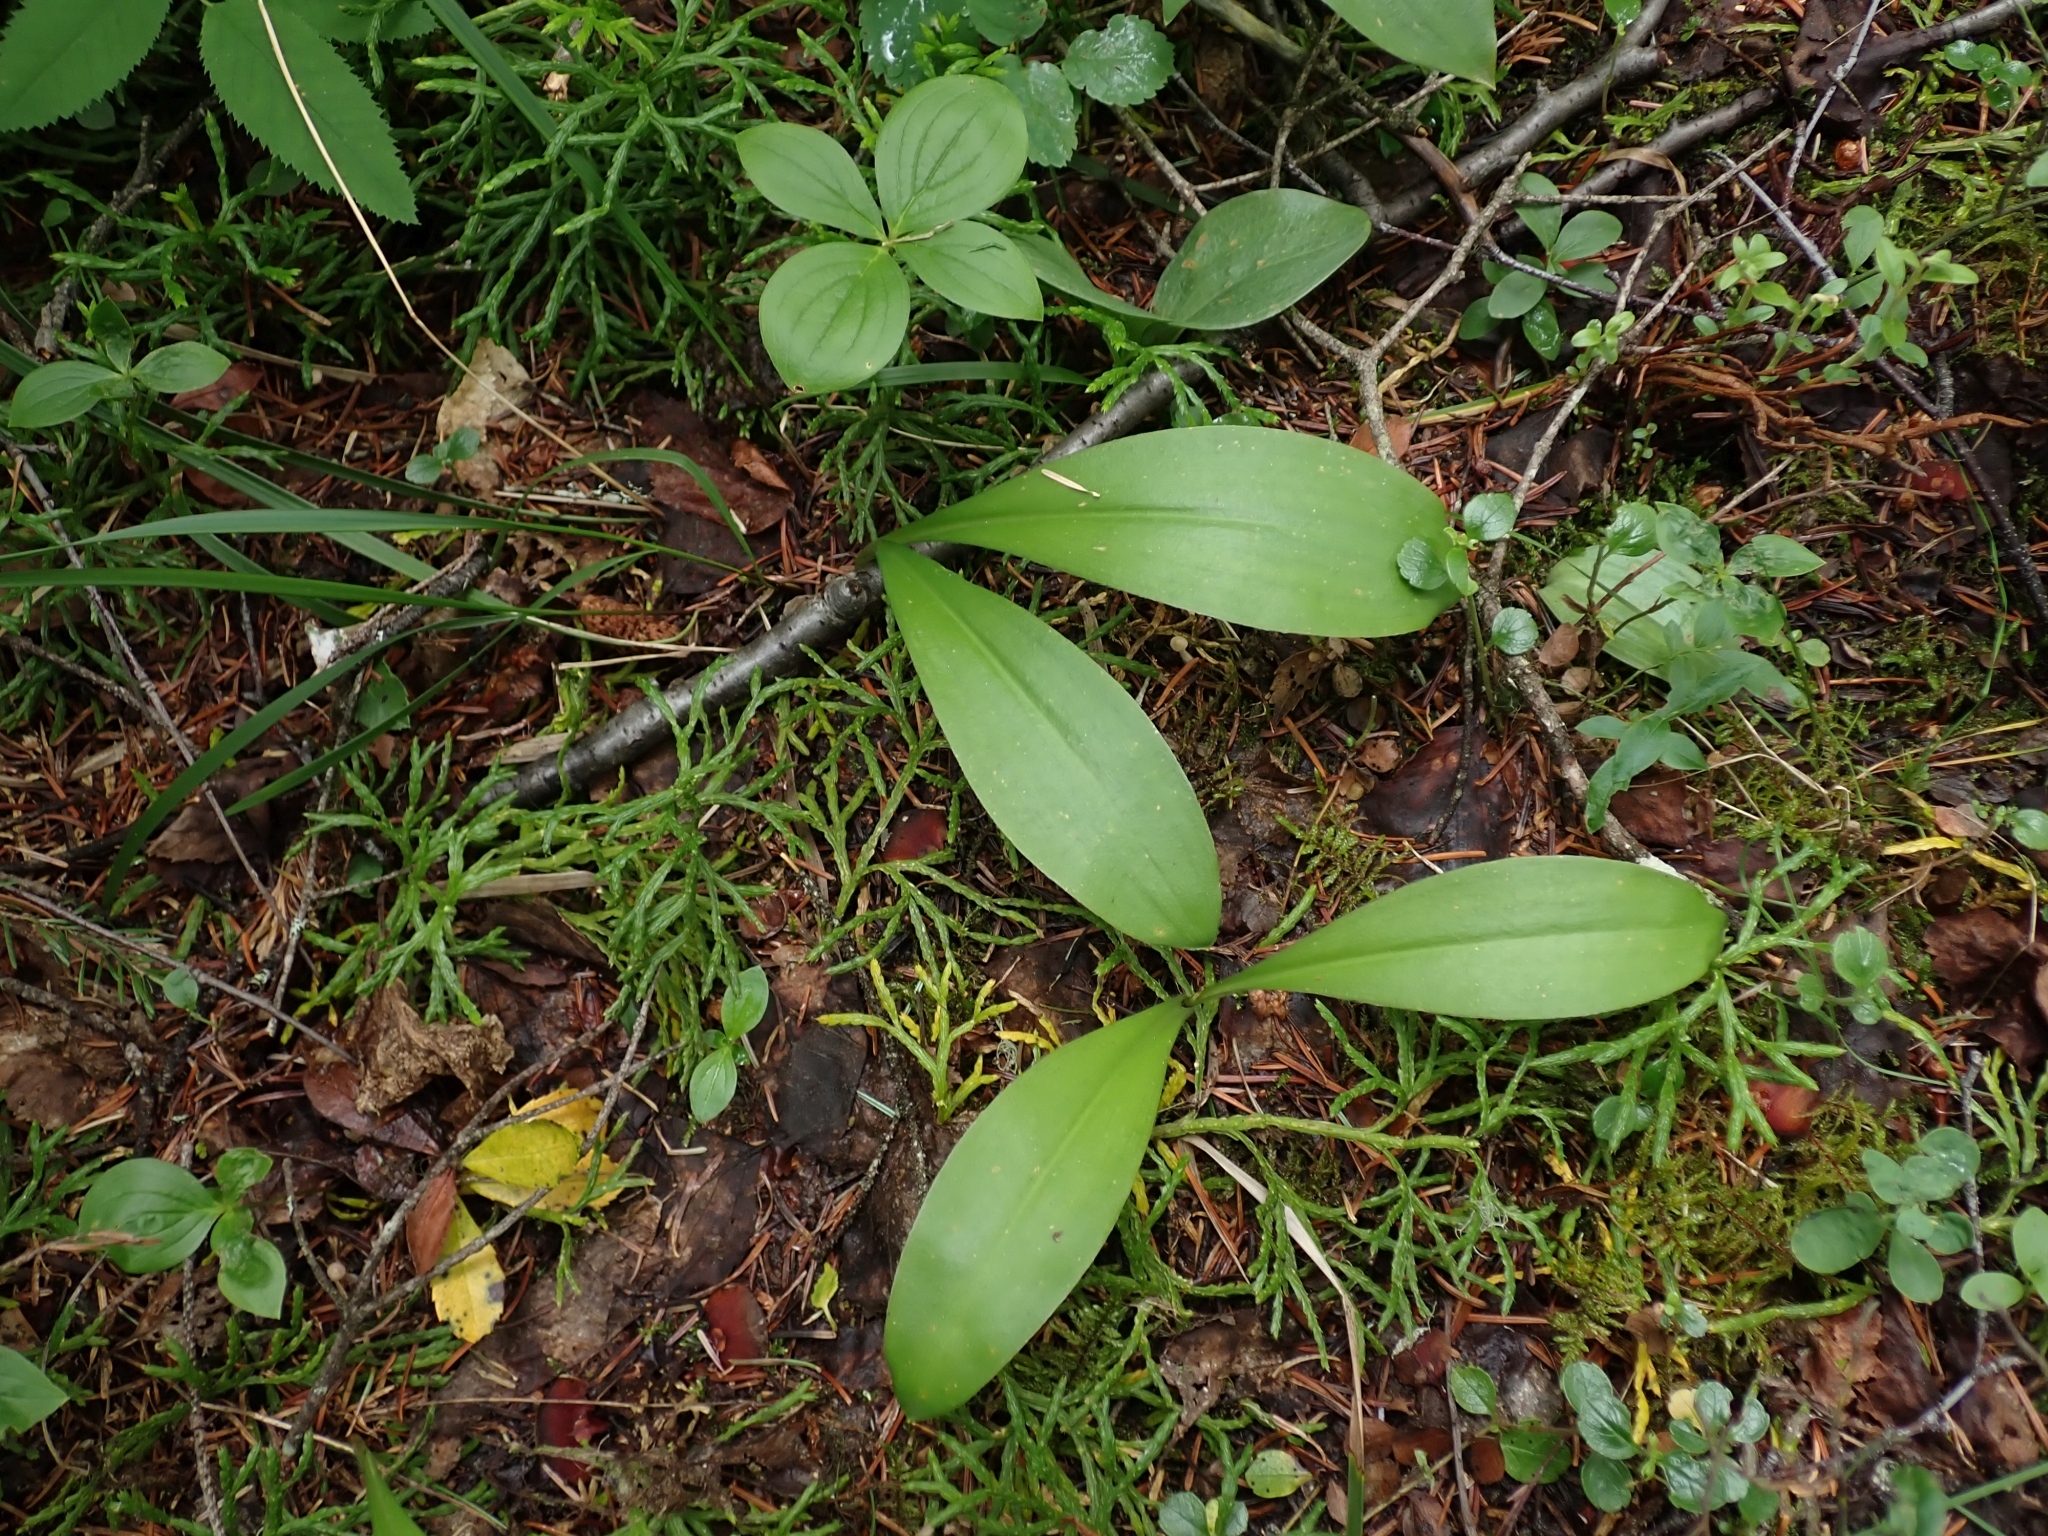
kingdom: Plantae
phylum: Tracheophyta
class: Liliopsida
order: Liliales
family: Liliaceae
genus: Clintonia
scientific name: Clintonia uniflora
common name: Queen's cup
